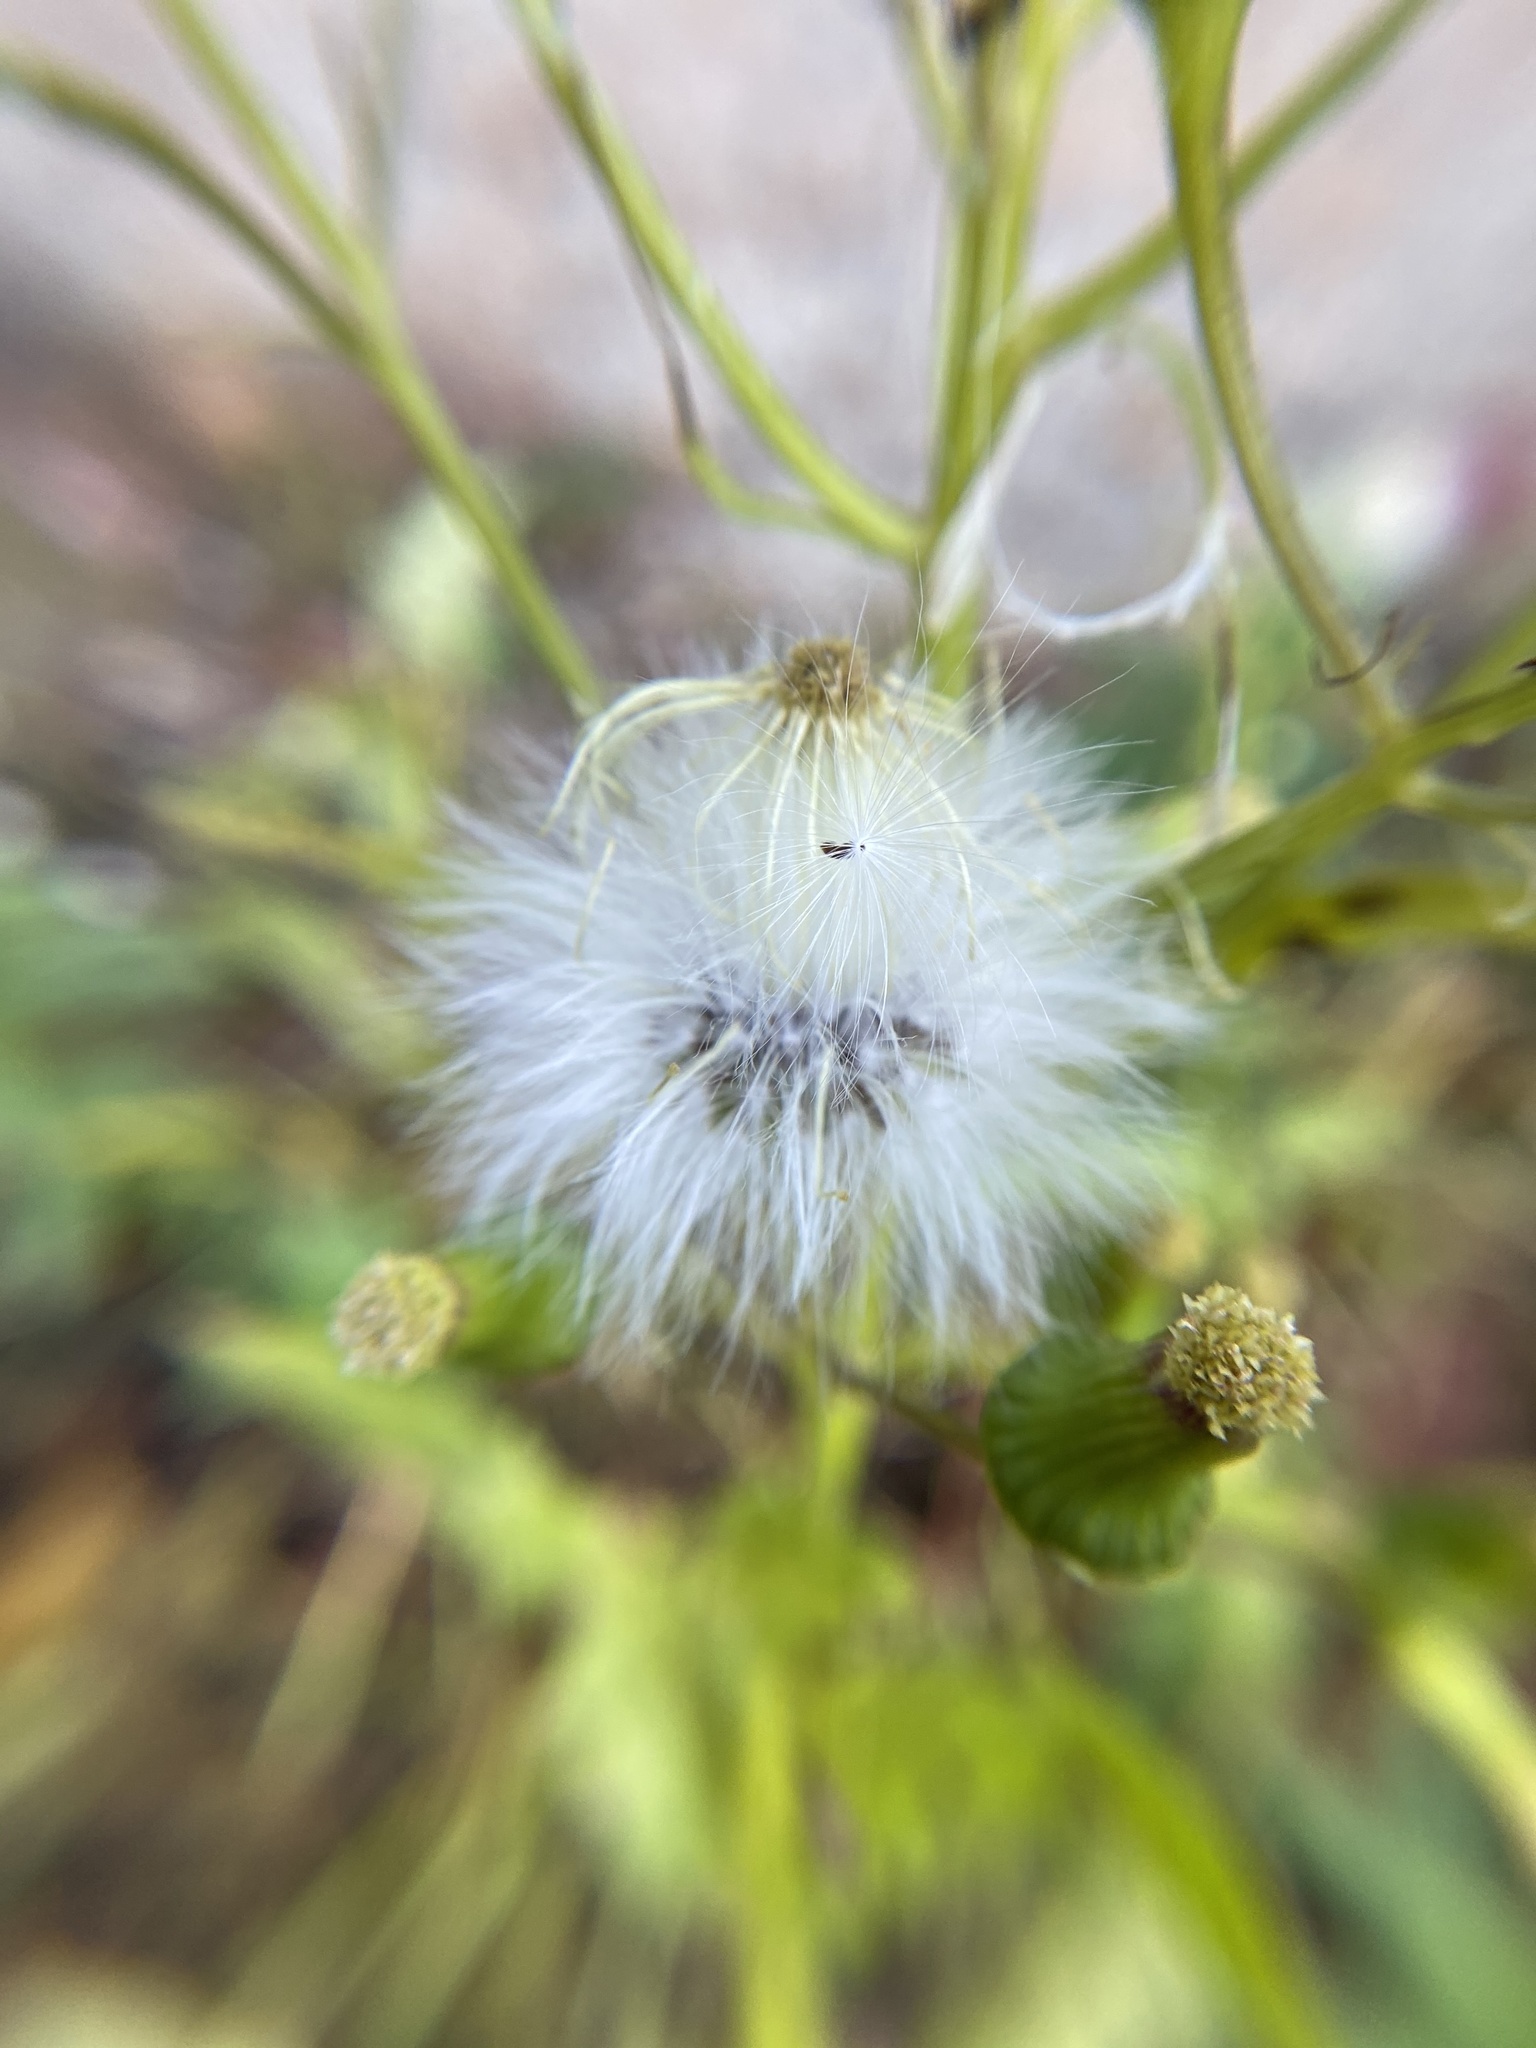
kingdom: Plantae
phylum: Tracheophyta
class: Magnoliopsida
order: Asterales
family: Asteraceae
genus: Erechtites
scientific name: Erechtites hieraciifolius
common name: American burnweed
